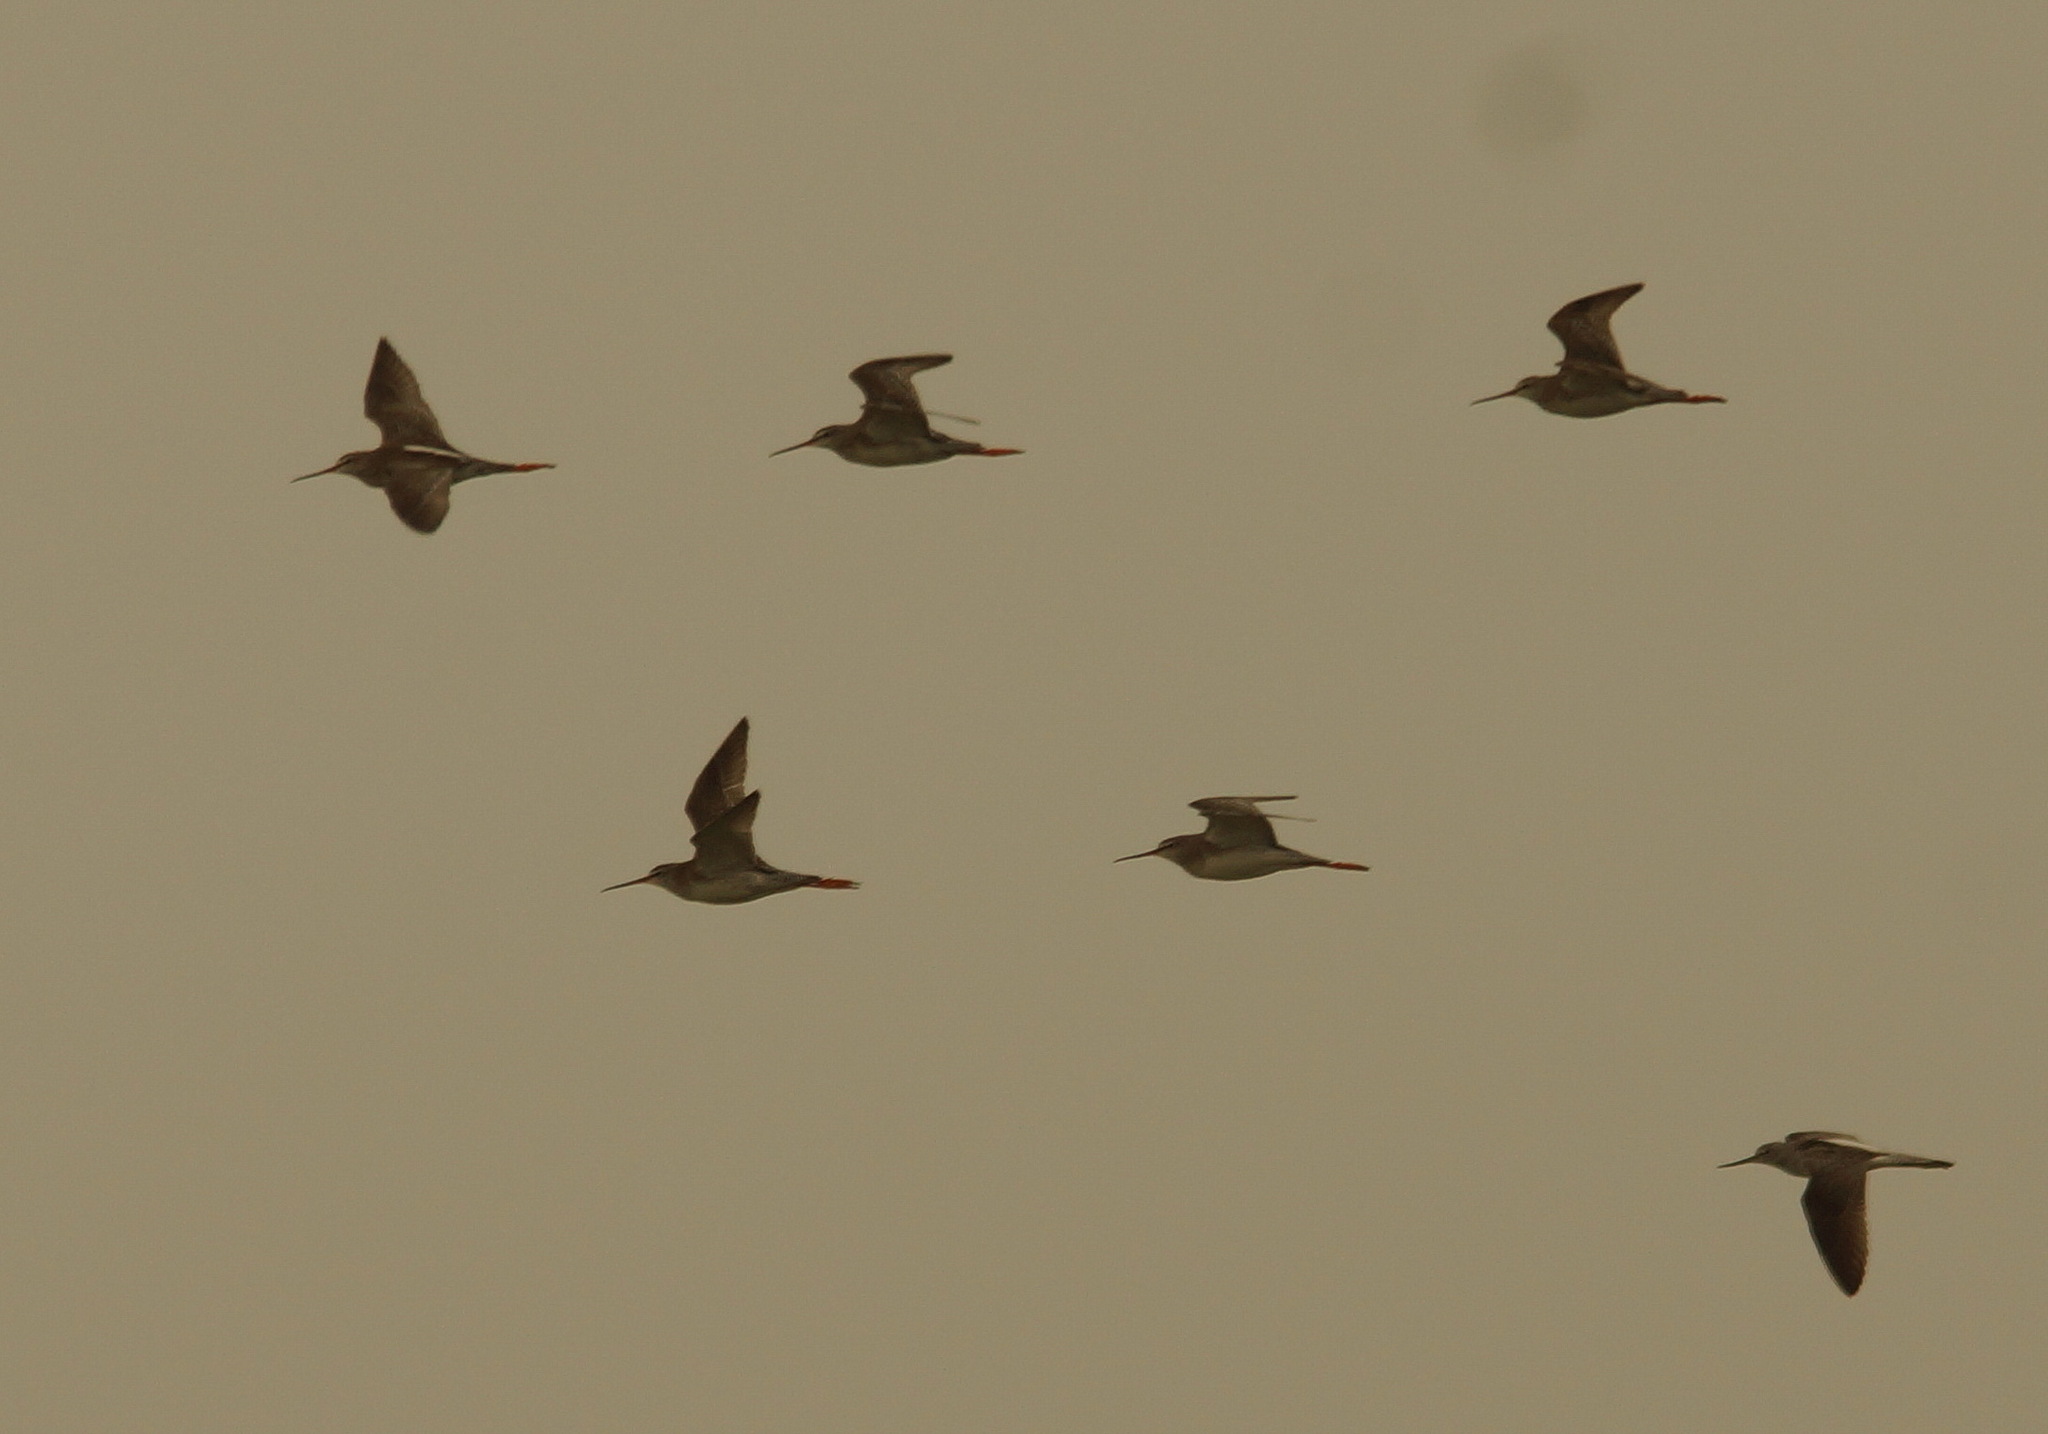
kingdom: Animalia
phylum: Chordata
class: Aves
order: Charadriiformes
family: Scolopacidae
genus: Tringa
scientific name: Tringa erythropus
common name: Spotted redshank
